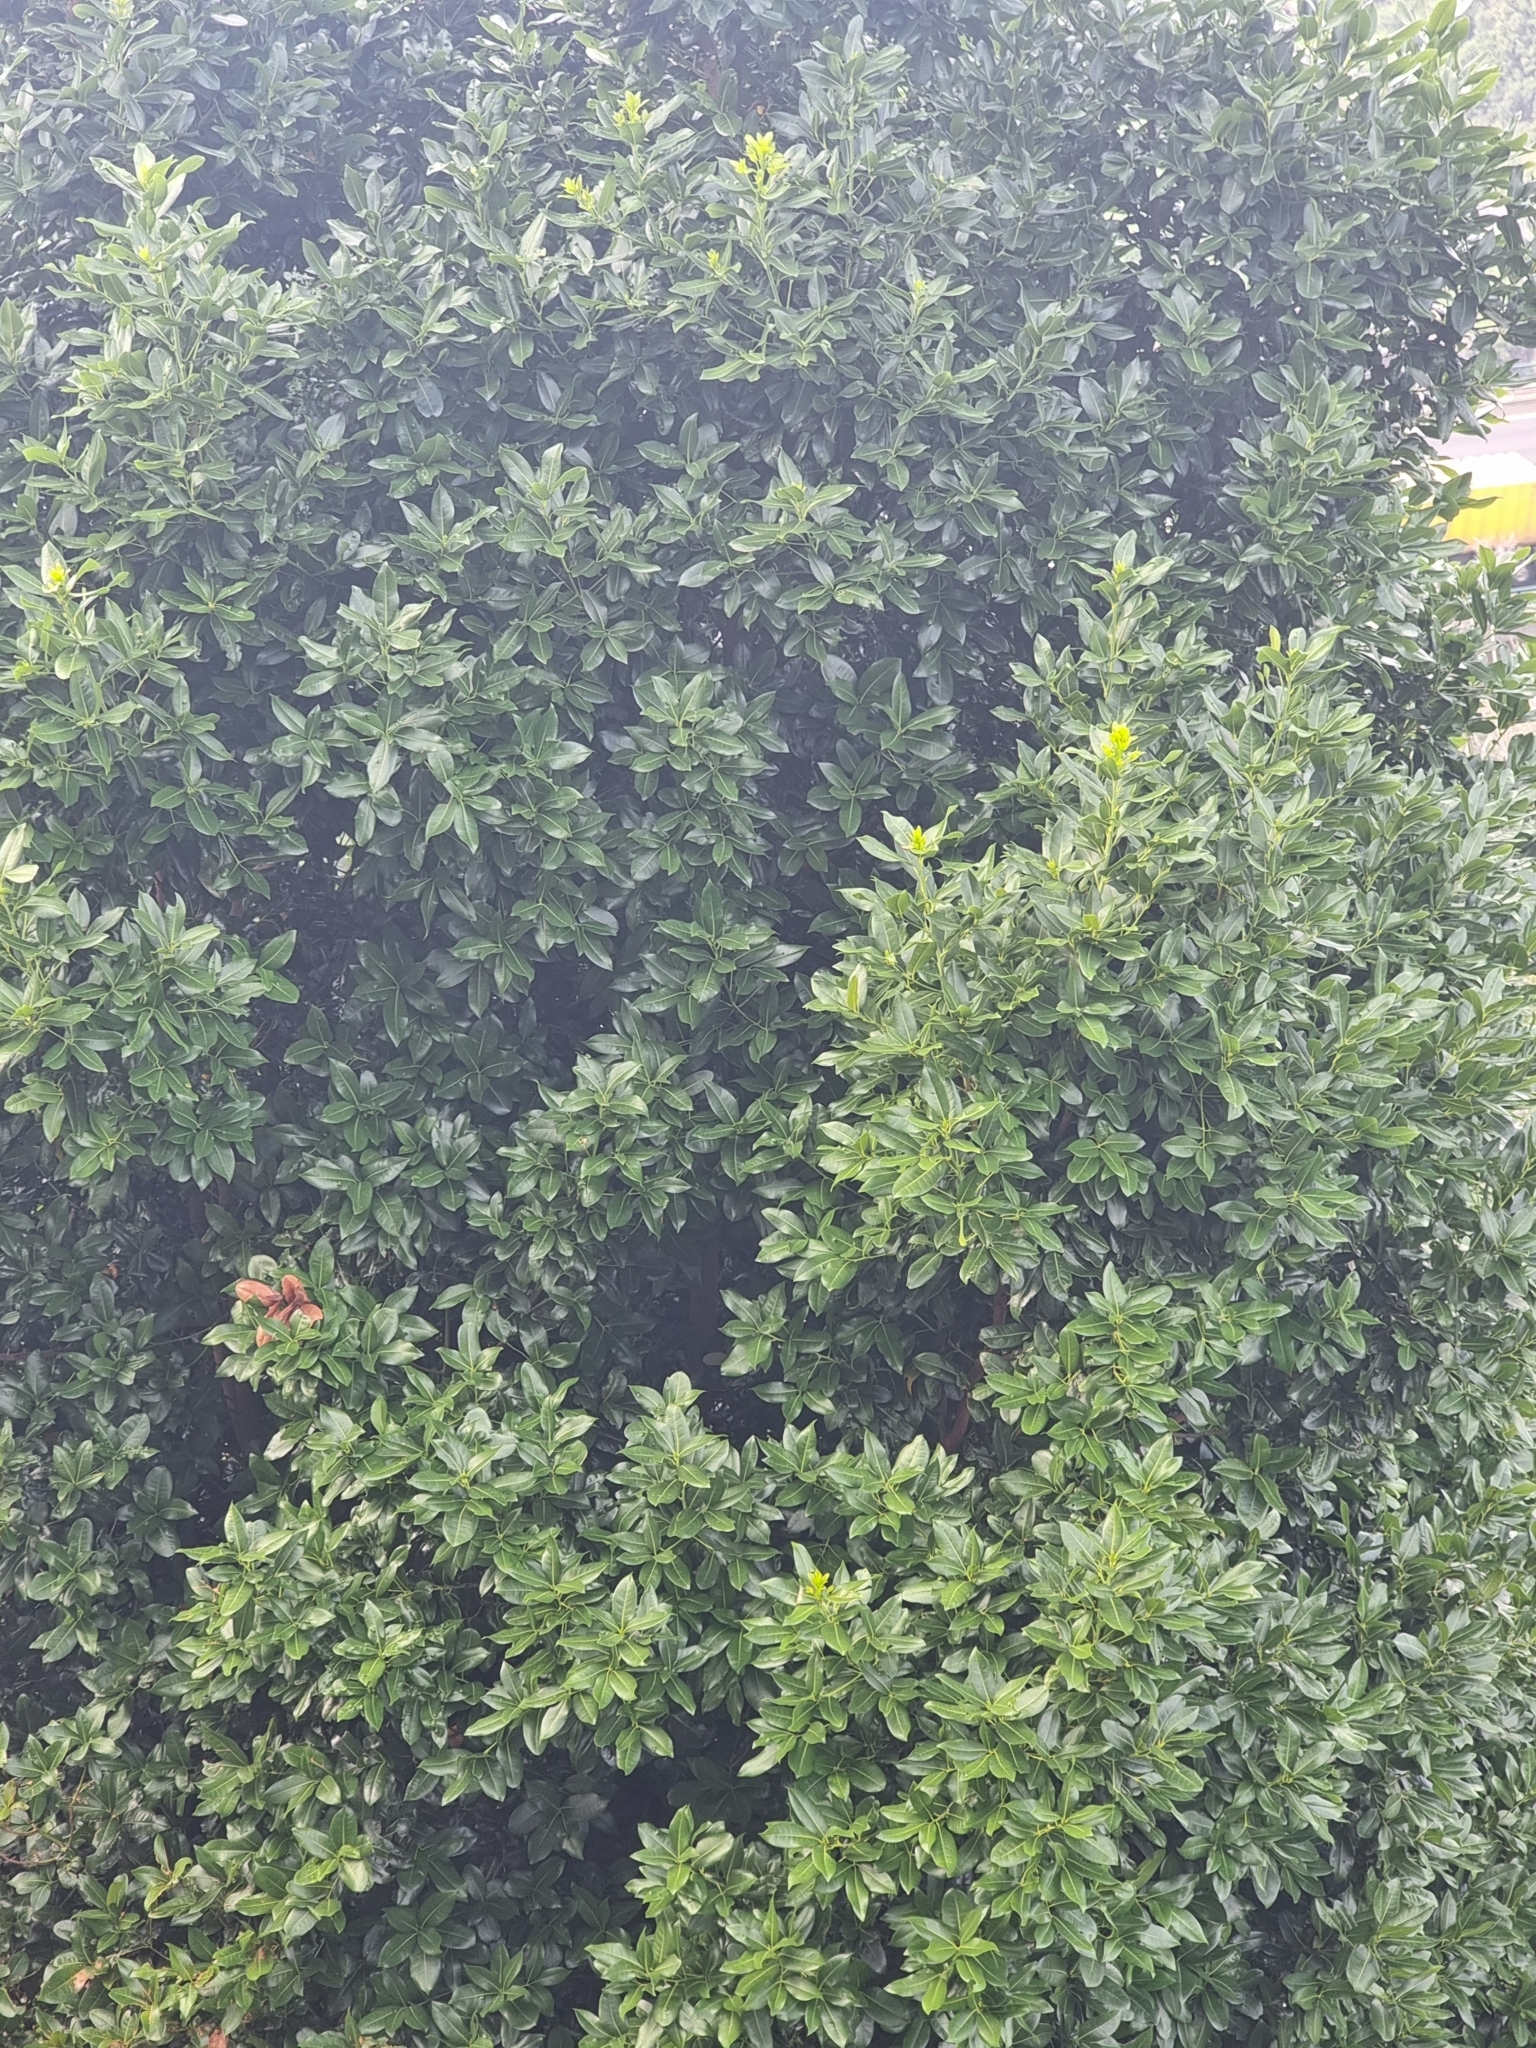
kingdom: Plantae
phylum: Tracheophyta
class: Magnoliopsida
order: Laurales
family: Lauraceae
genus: Apollonias
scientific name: Apollonias barbujana
